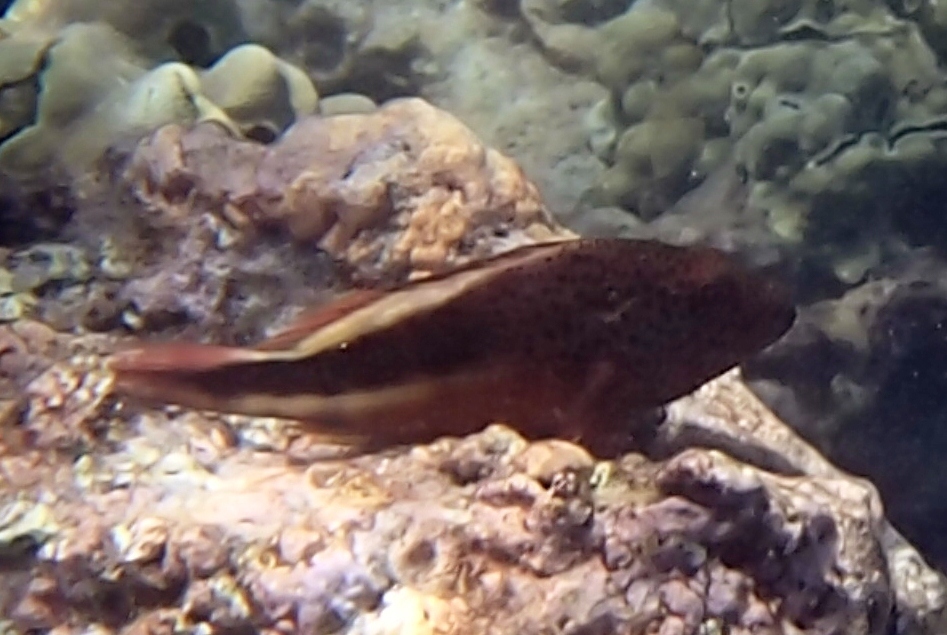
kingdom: Animalia
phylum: Chordata
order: Perciformes
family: Cirrhitidae
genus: Paracirrhites
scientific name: Paracirrhites forsteri
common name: Freckled hawkfish
